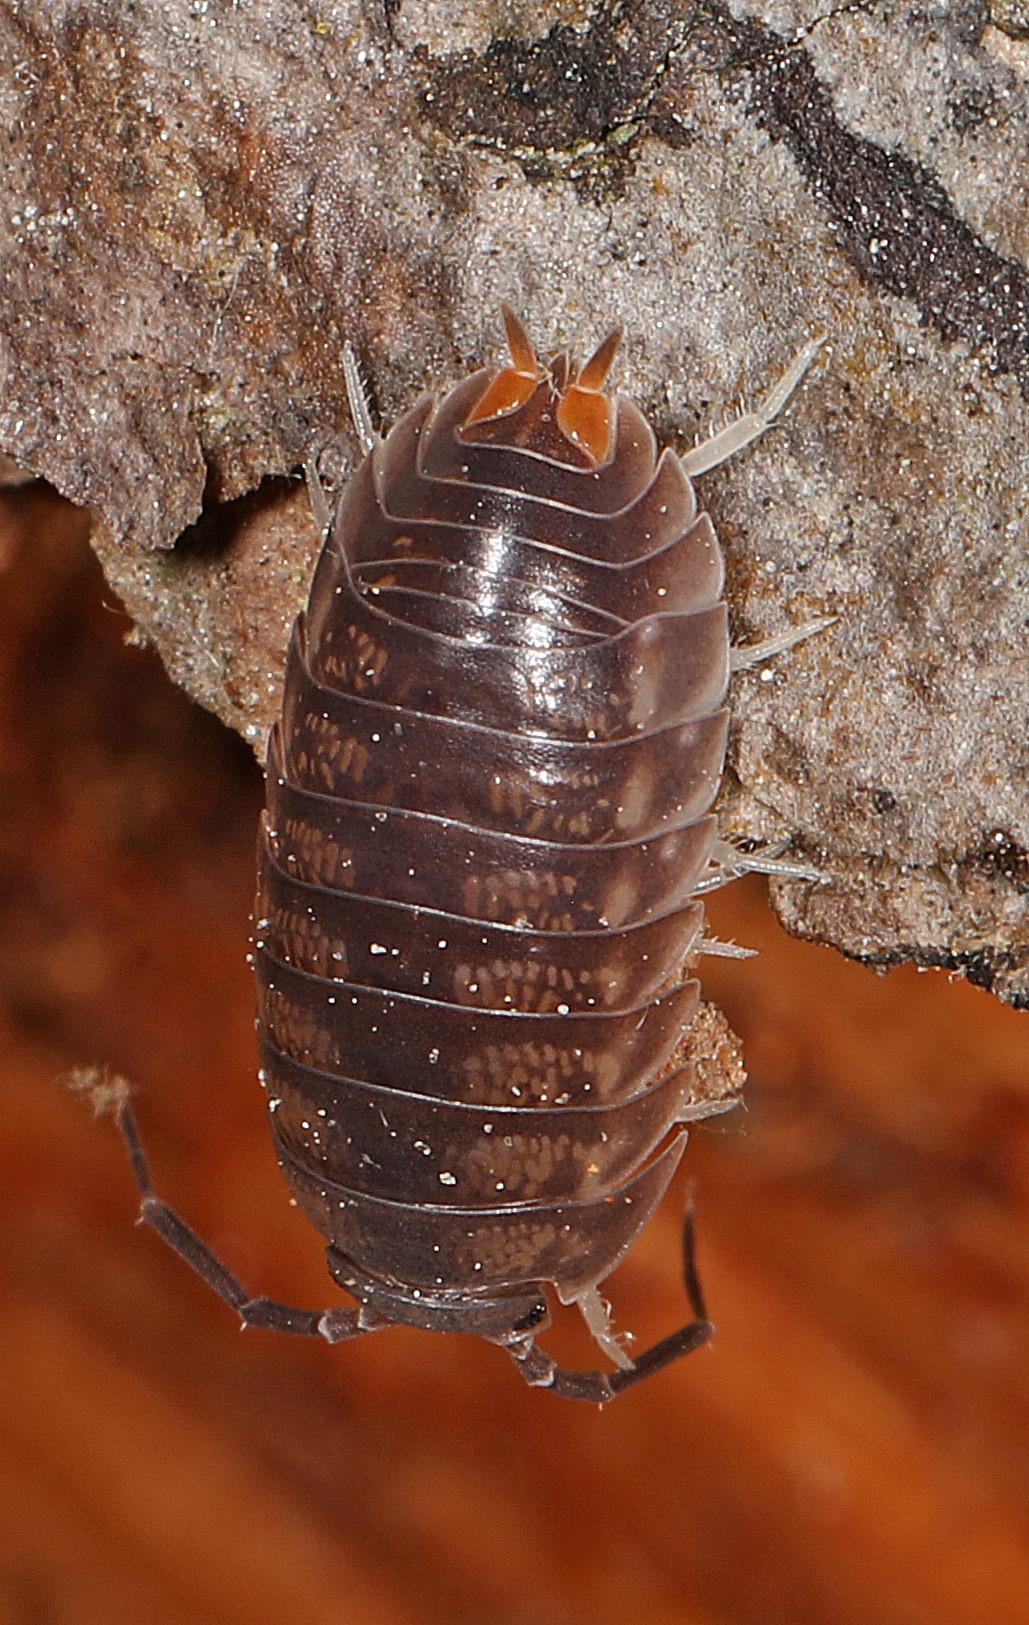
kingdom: Animalia
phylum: Arthropoda
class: Malacostraca
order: Isopoda
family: Cylisticidae
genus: Cylisticus
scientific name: Cylisticus convexus
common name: Curly woodlouse
